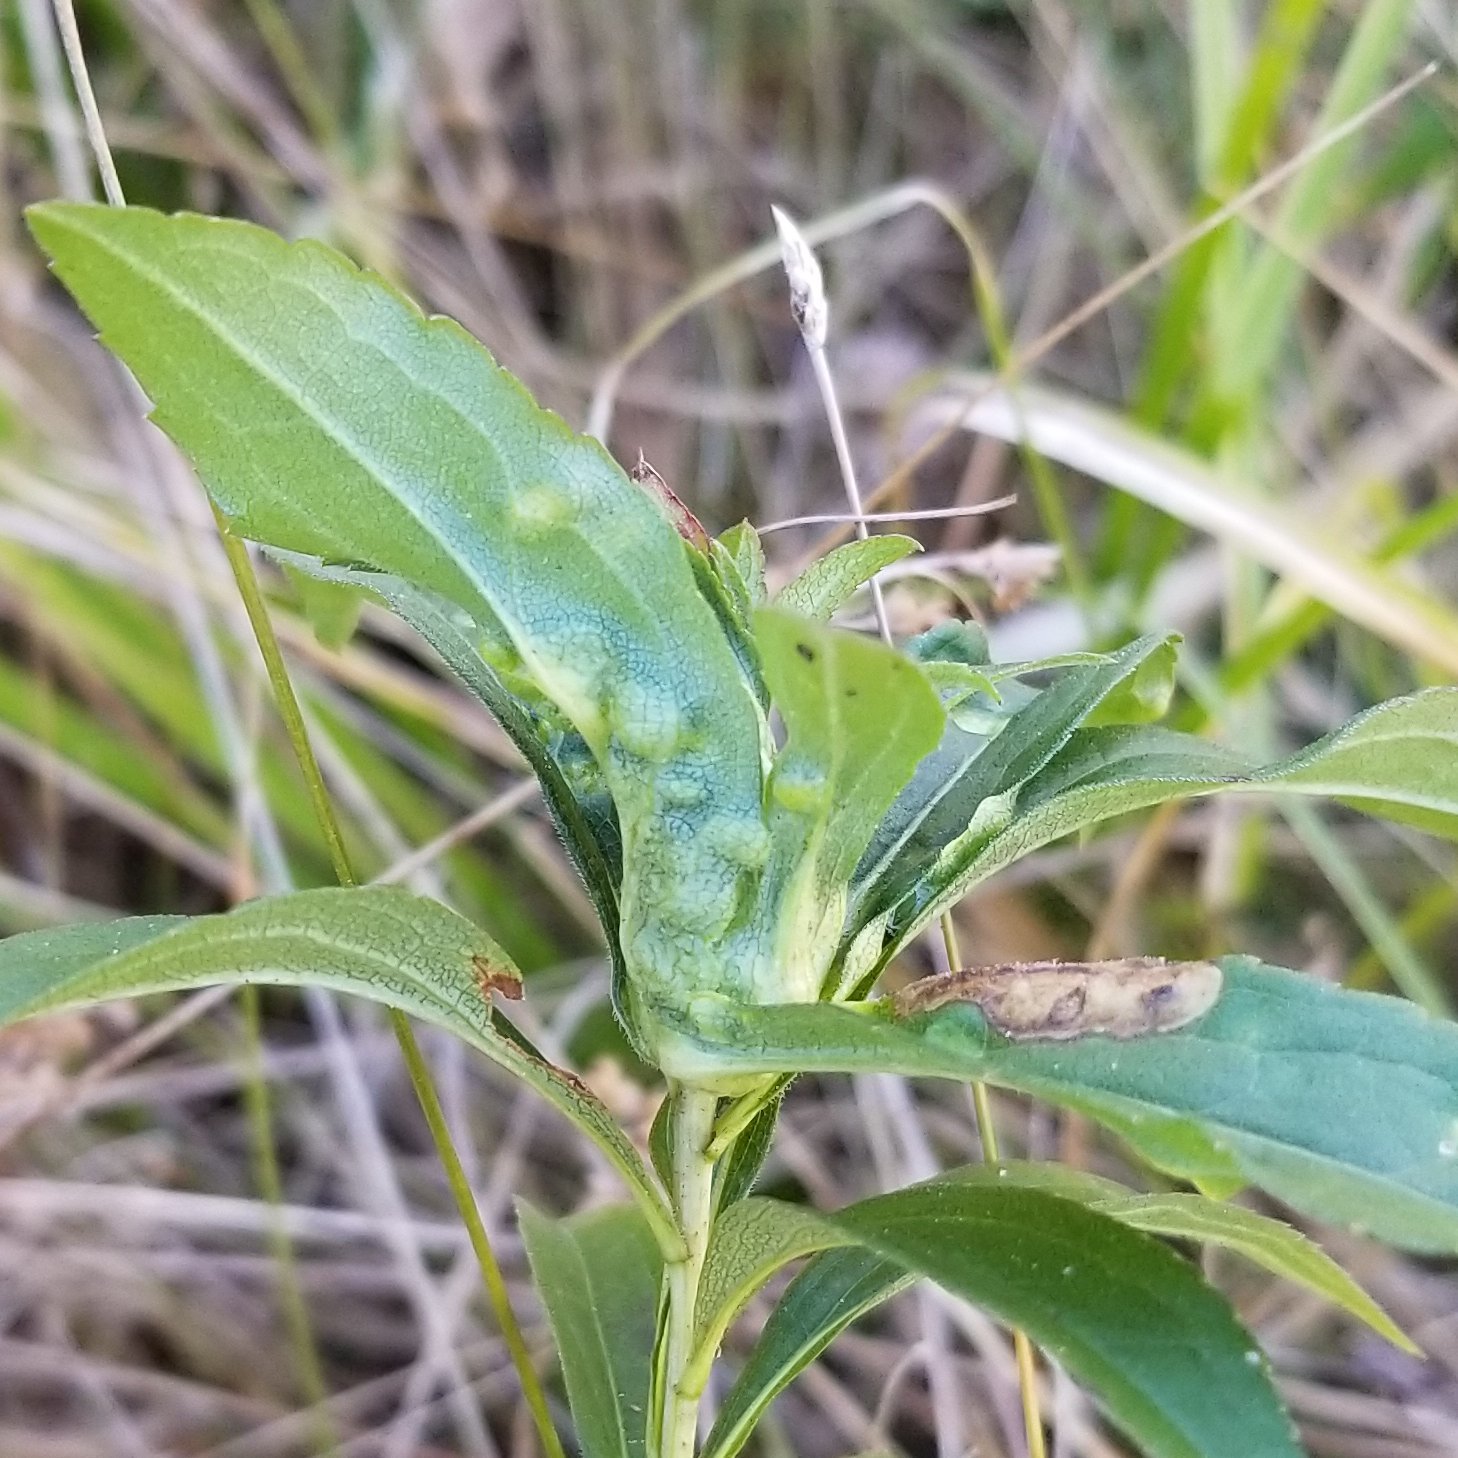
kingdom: Animalia
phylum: Arthropoda
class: Insecta
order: Diptera
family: Cecidomyiidae
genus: Dasineura
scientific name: Dasineura folliculi
